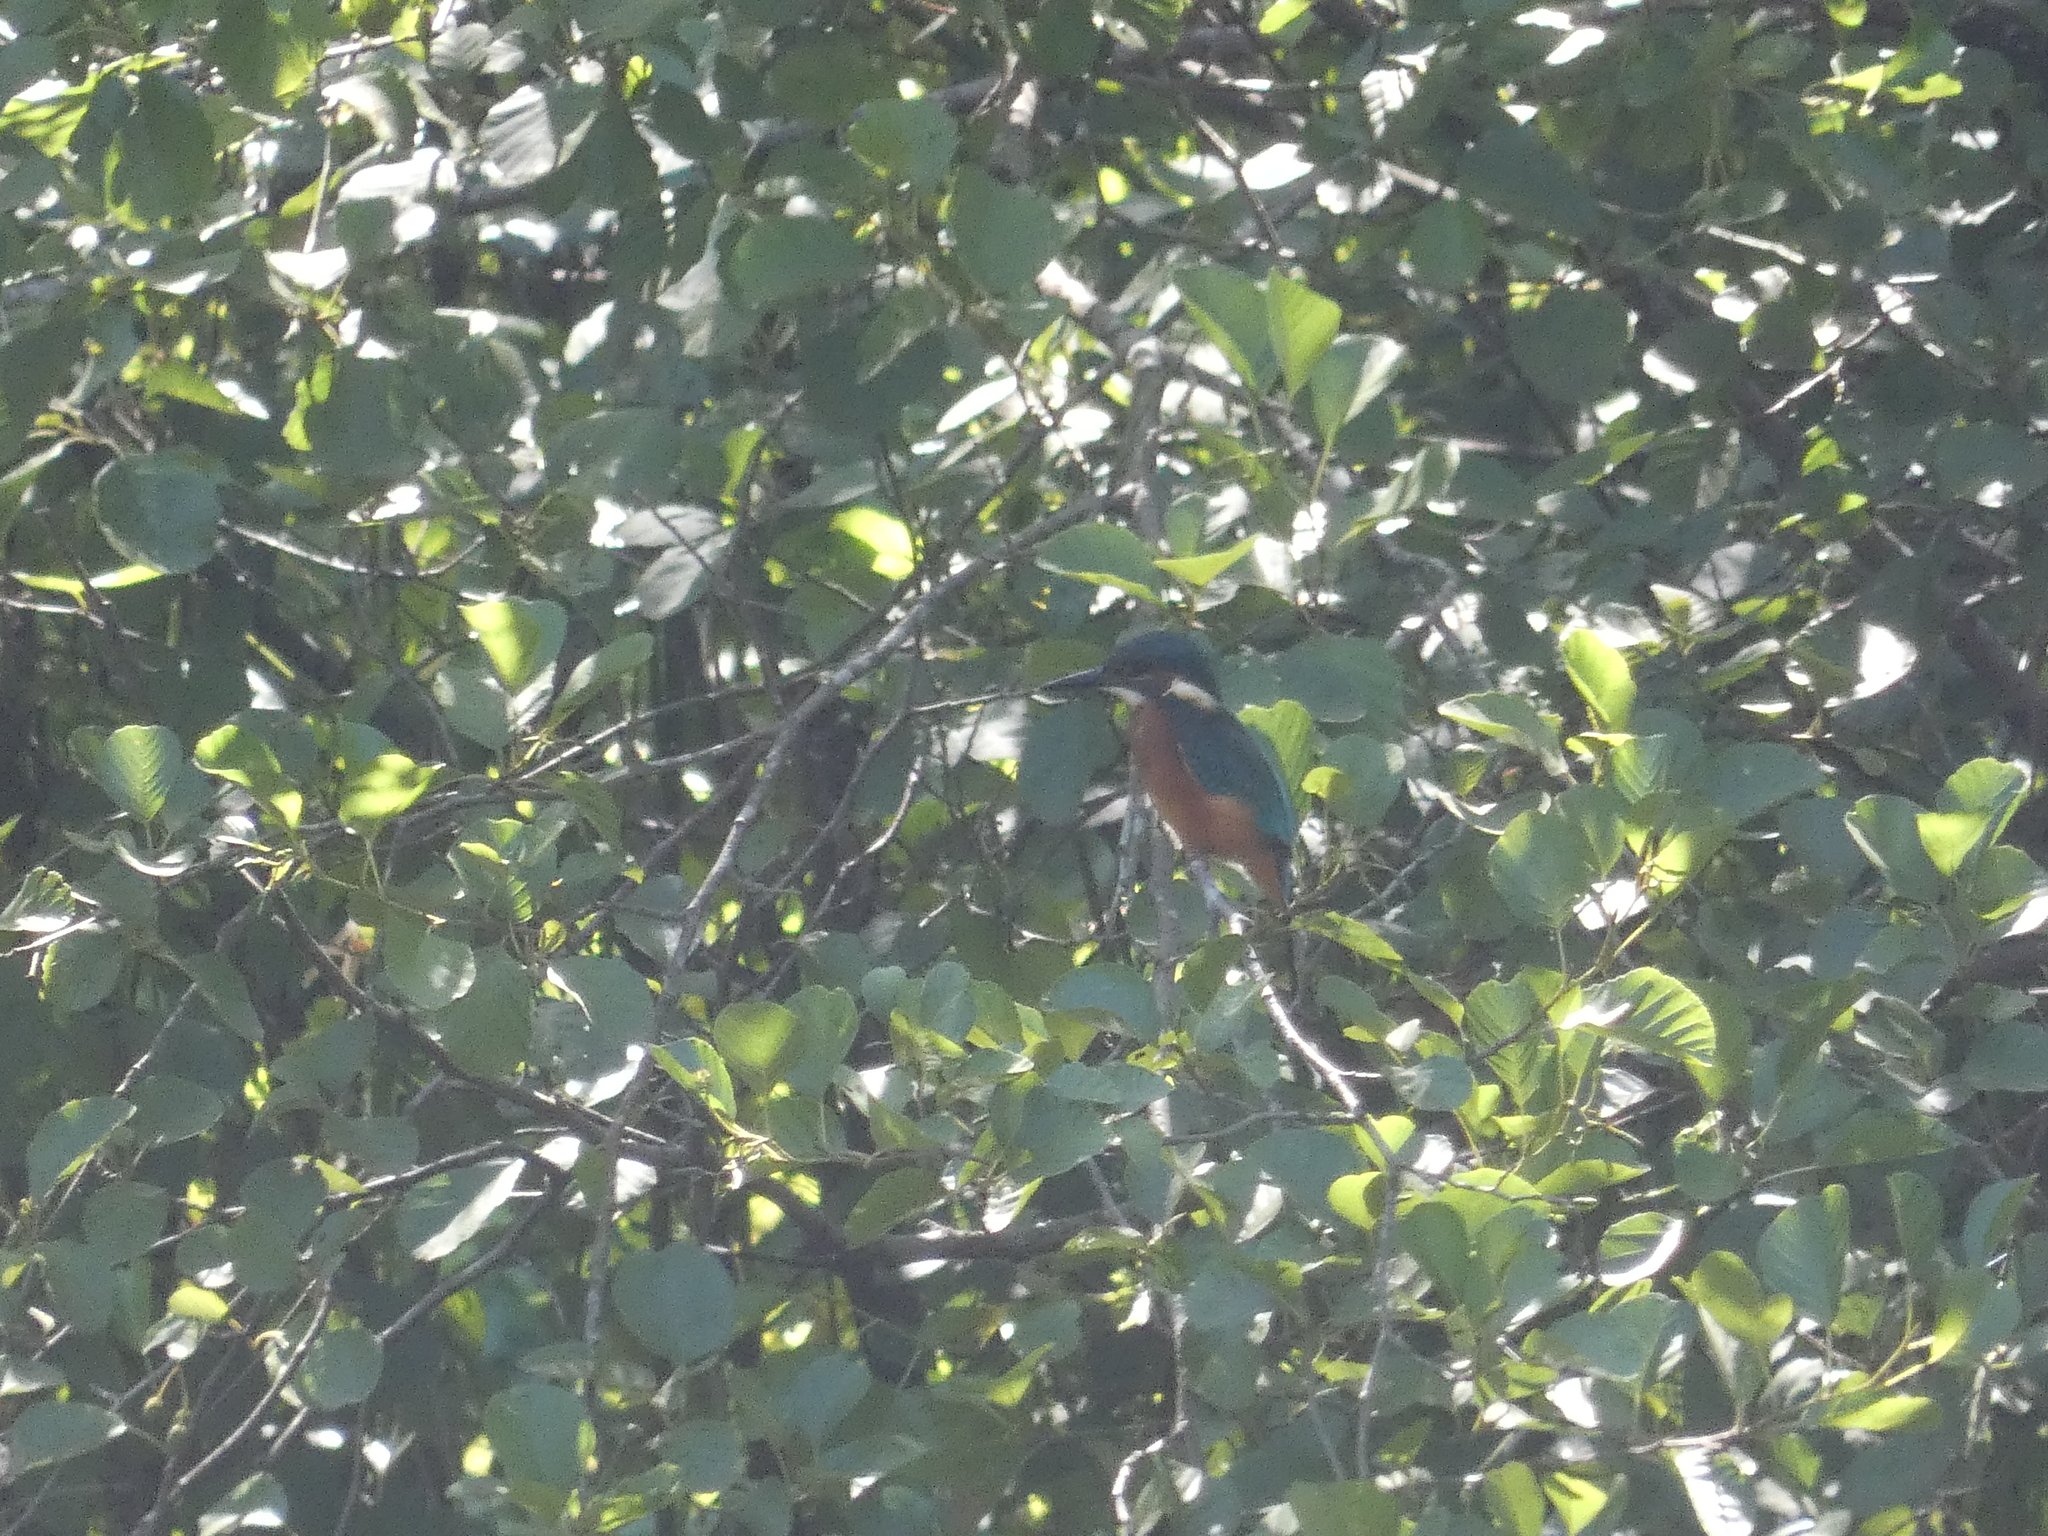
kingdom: Animalia
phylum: Chordata
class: Aves
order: Coraciiformes
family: Alcedinidae
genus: Alcedo
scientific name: Alcedo atthis
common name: Common kingfisher
